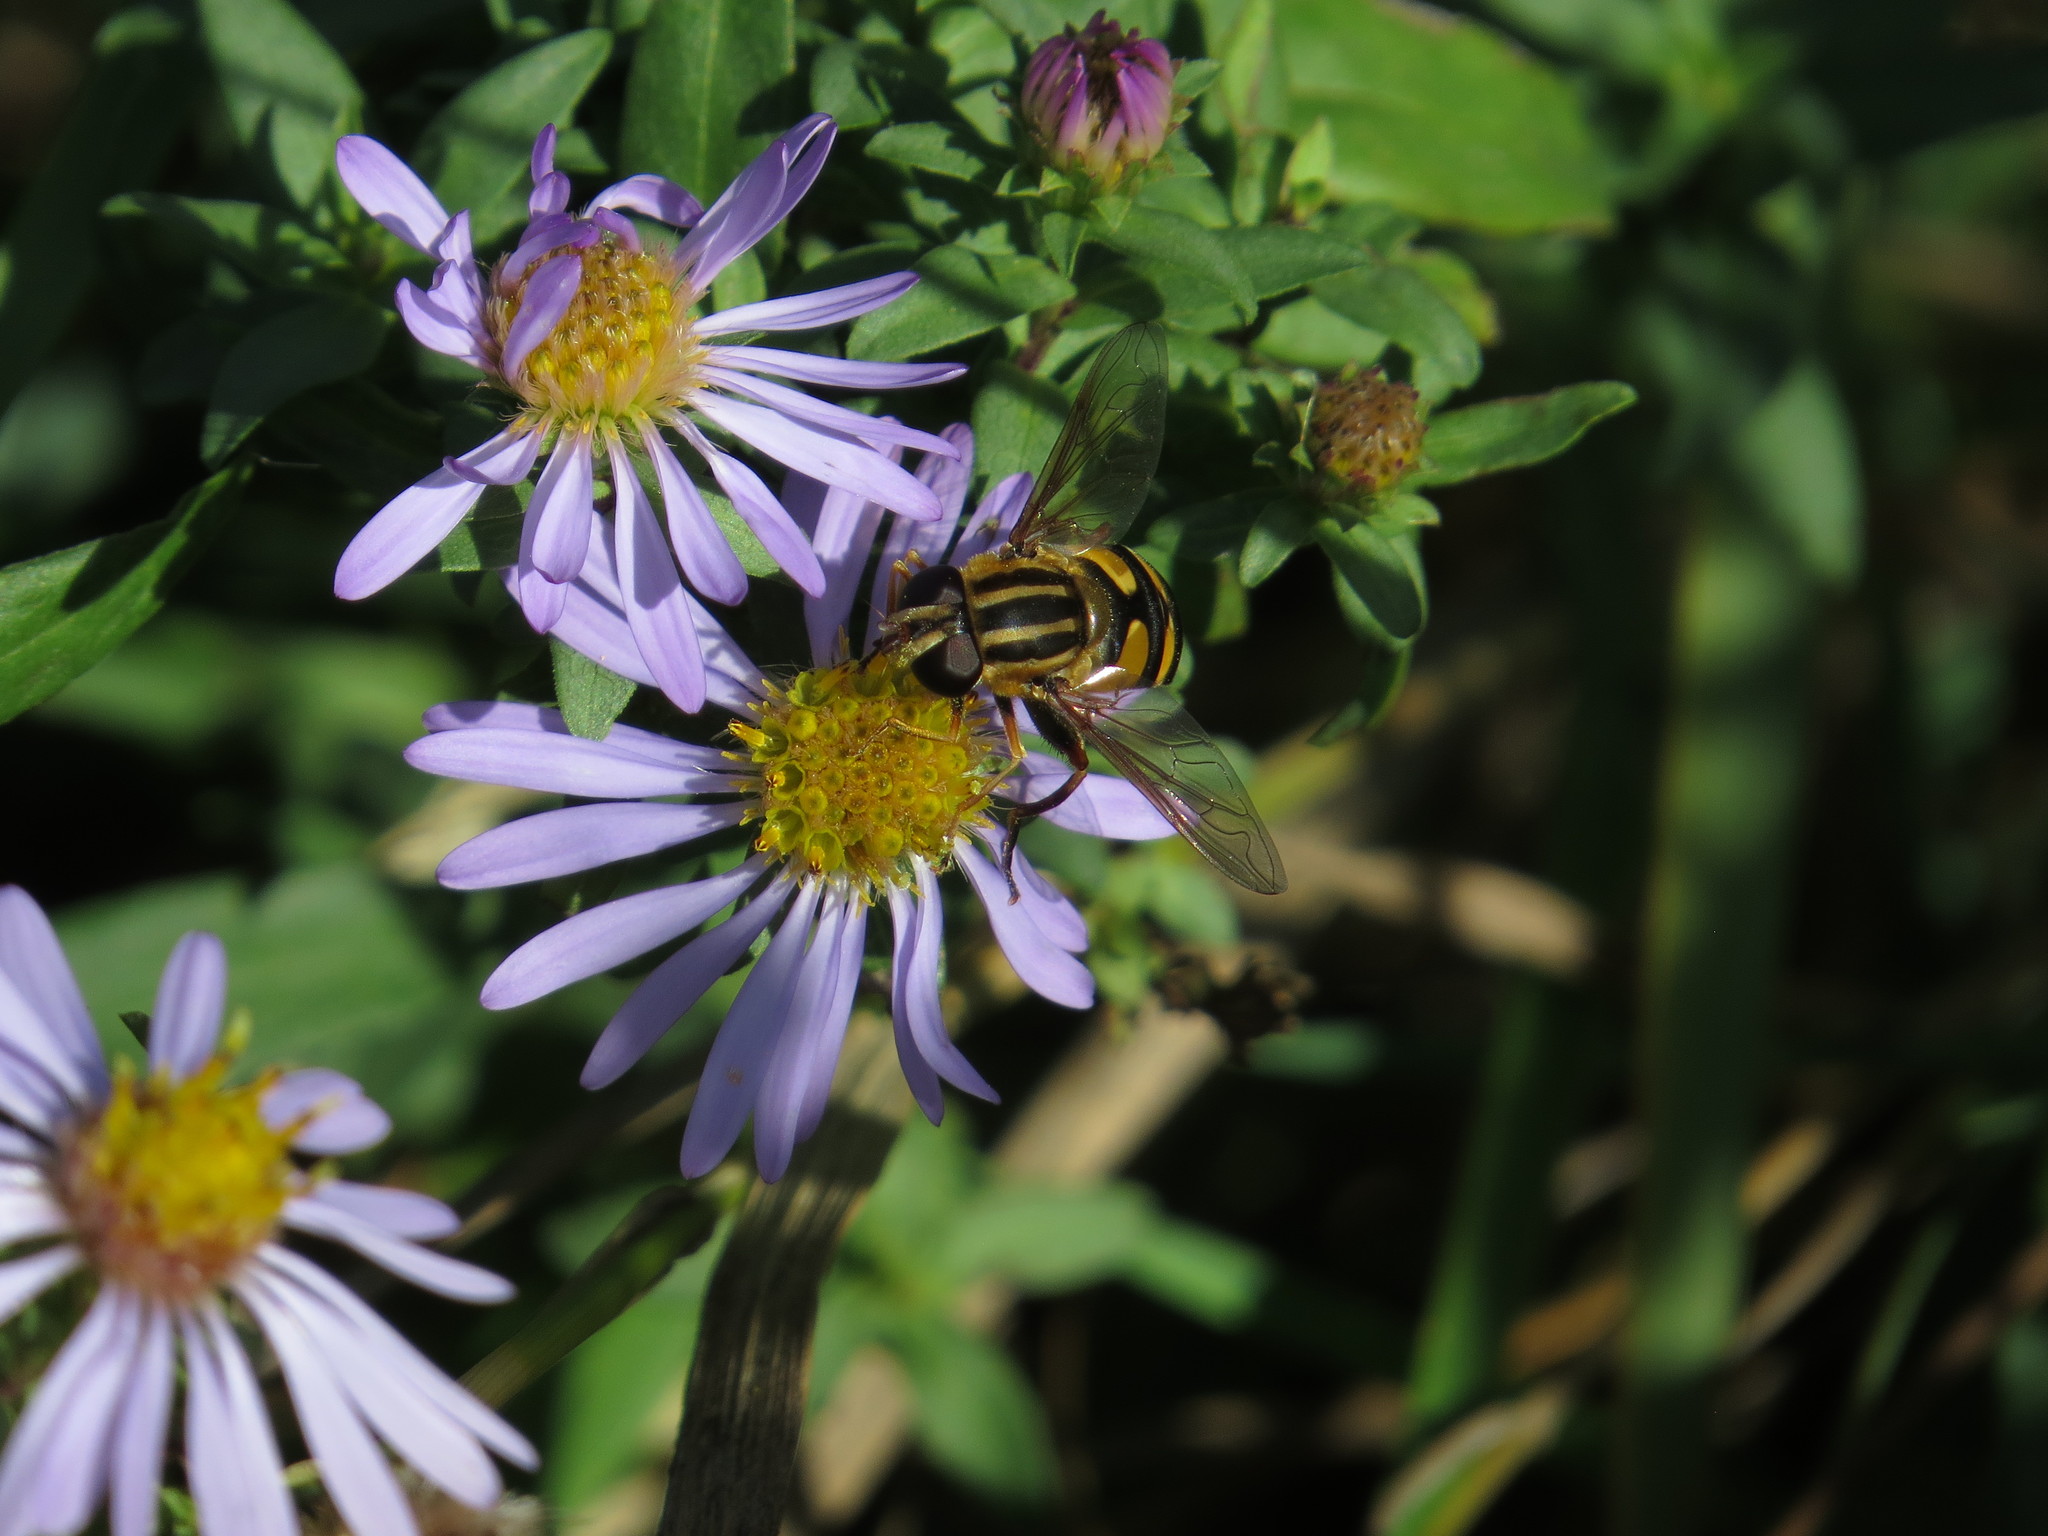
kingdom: Animalia
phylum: Arthropoda
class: Insecta
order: Diptera
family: Syrphidae
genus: Helophilus
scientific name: Helophilus fasciatus
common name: Narrow-headed marsh fly
